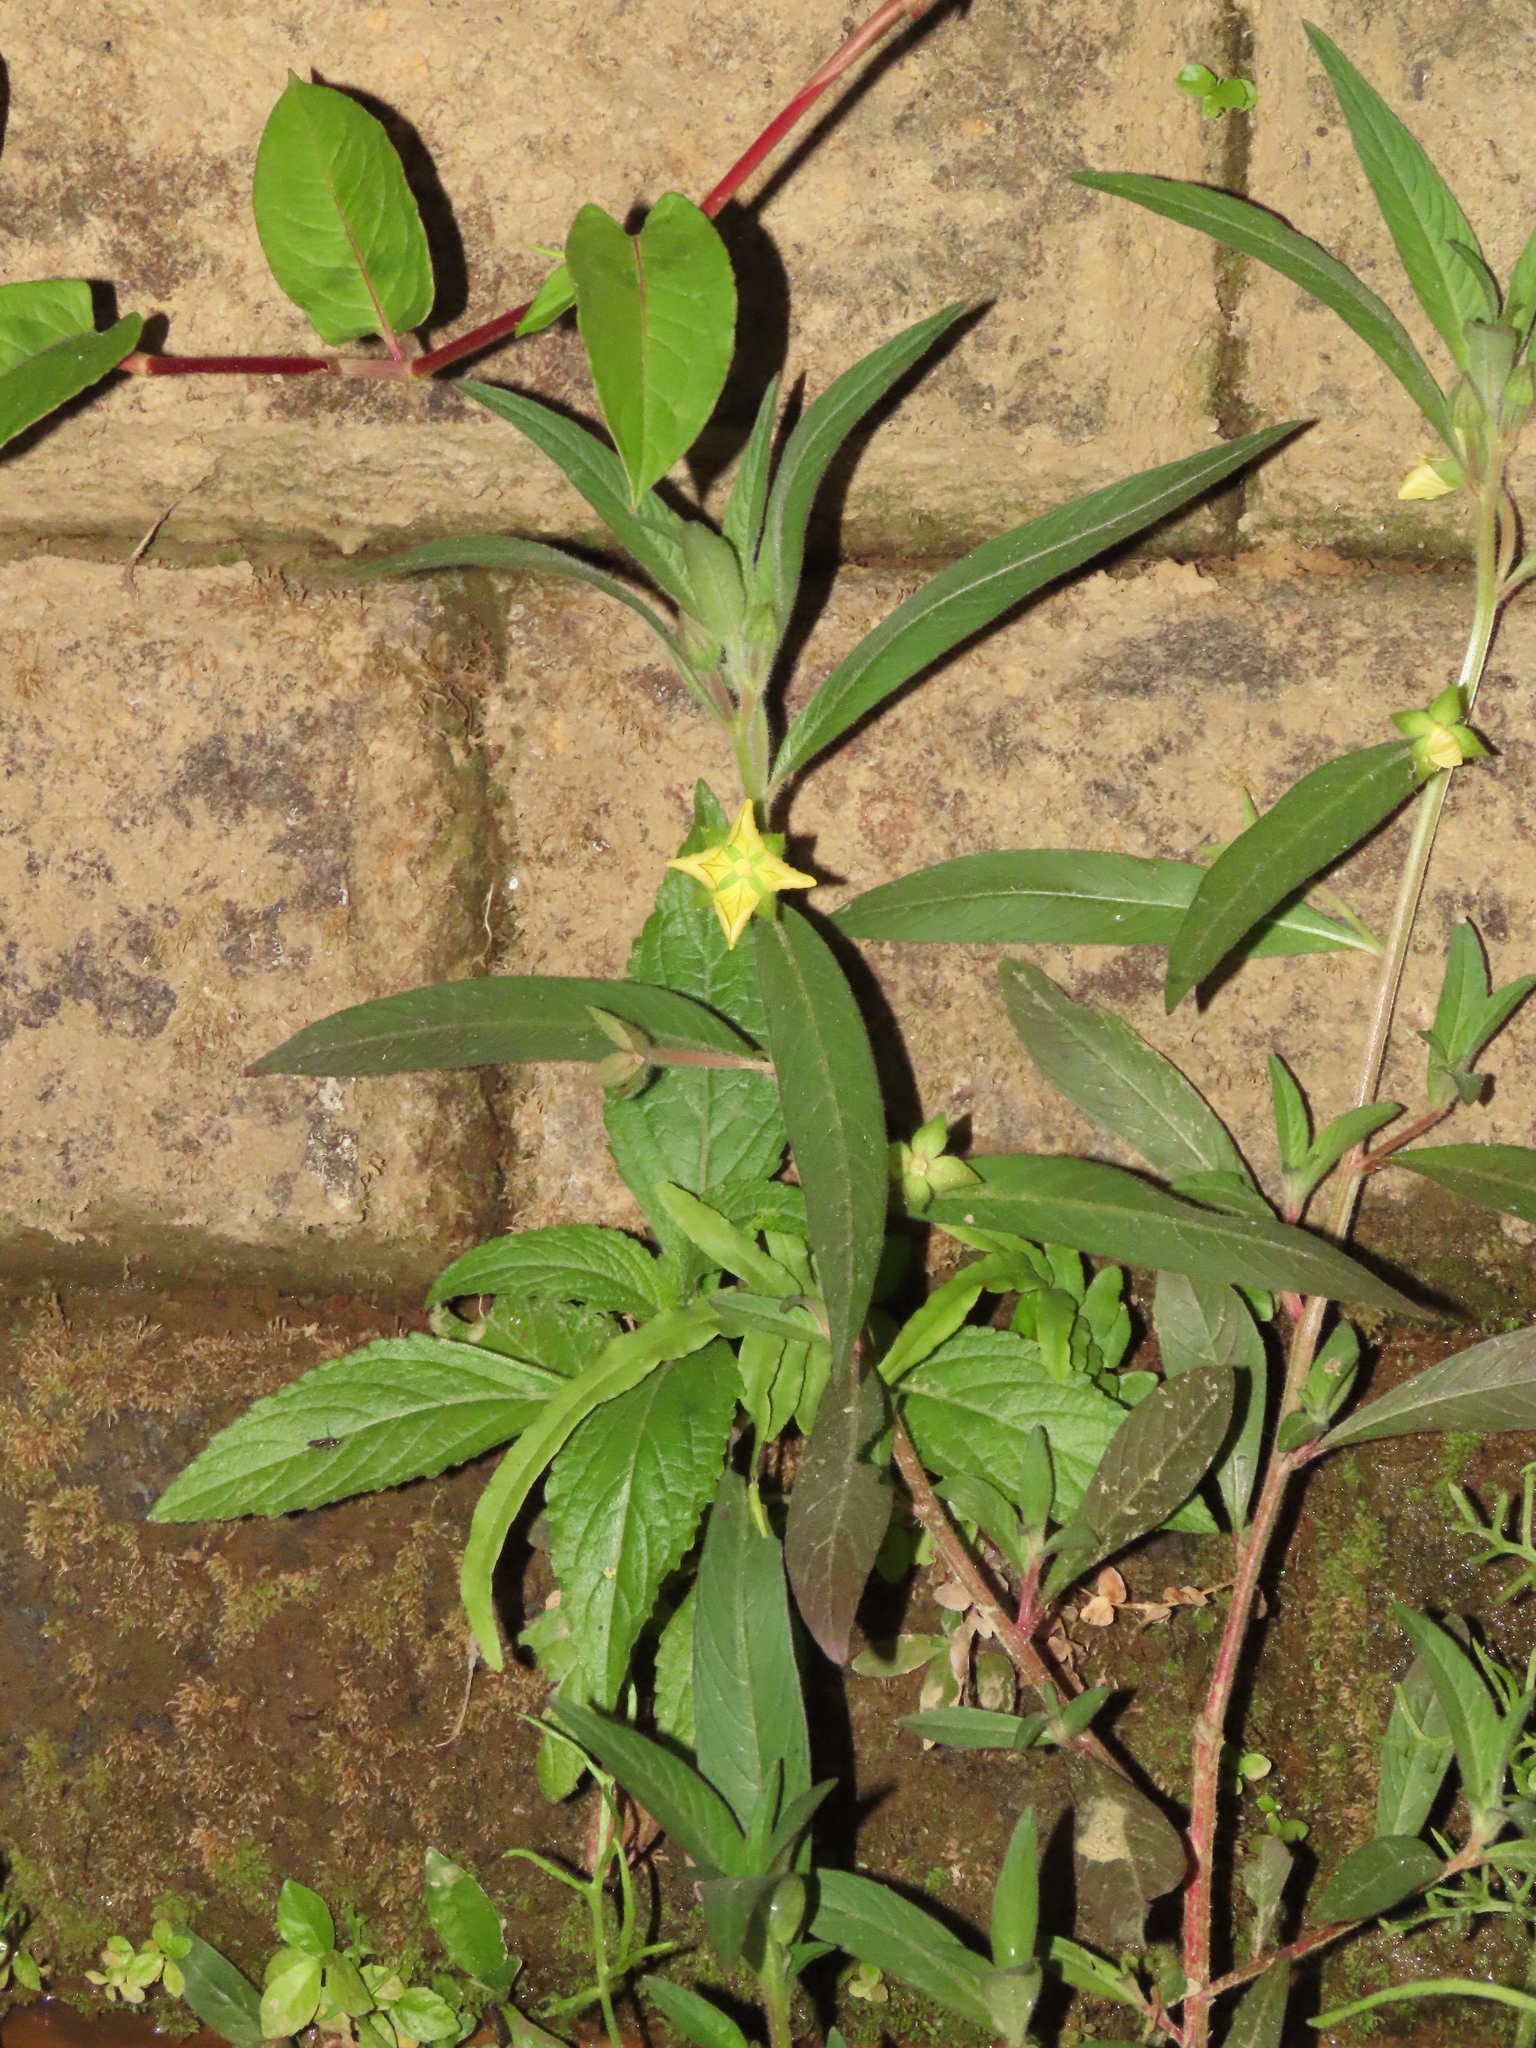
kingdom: Plantae
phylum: Tracheophyta
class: Magnoliopsida
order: Myrtales
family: Onagraceae
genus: Ludwigia
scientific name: Ludwigia octovalvis
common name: Water-primrose
